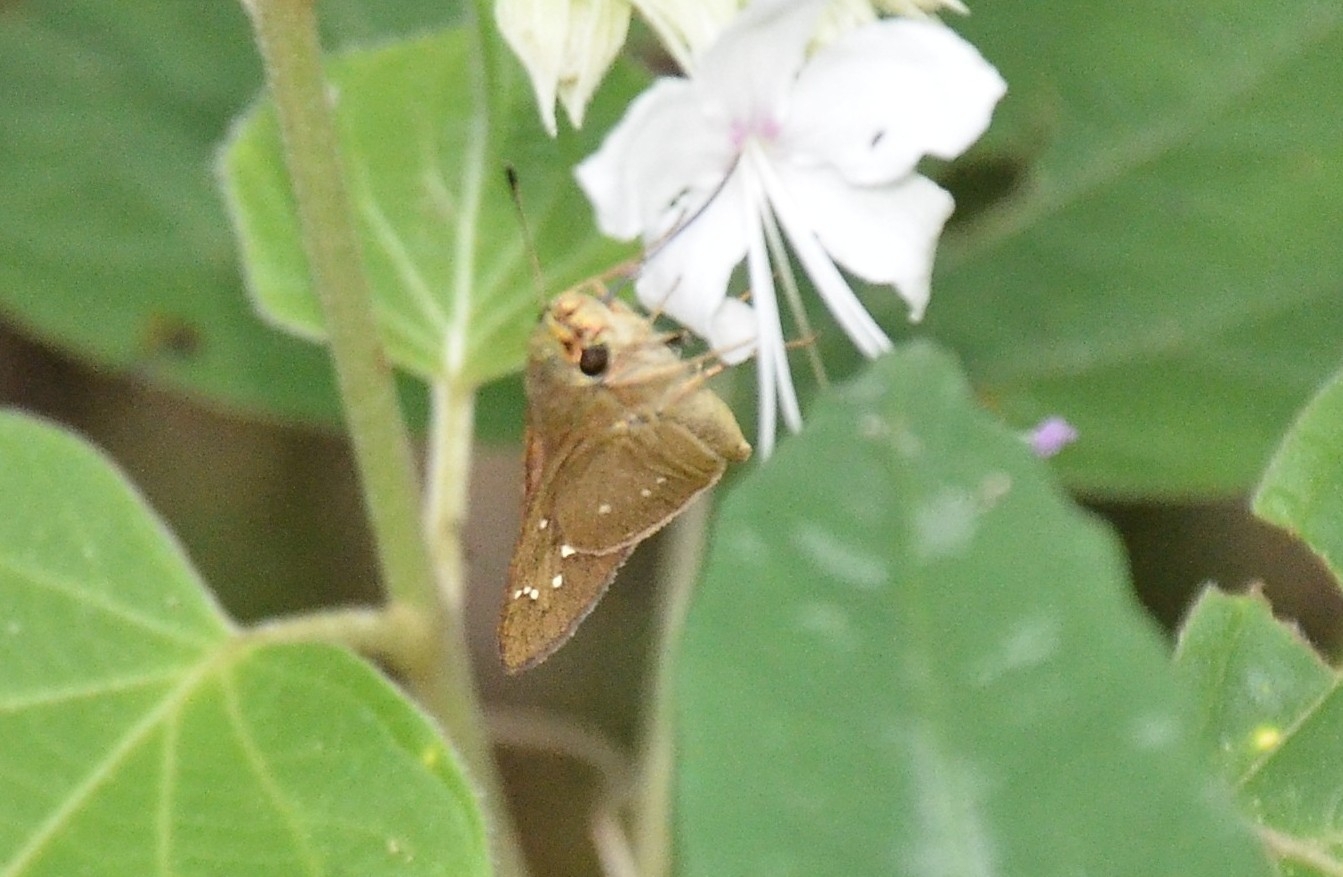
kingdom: Animalia
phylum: Arthropoda
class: Insecta
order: Lepidoptera
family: Hesperiidae
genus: Borbo
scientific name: Borbo cinnara
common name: Formosan swift
